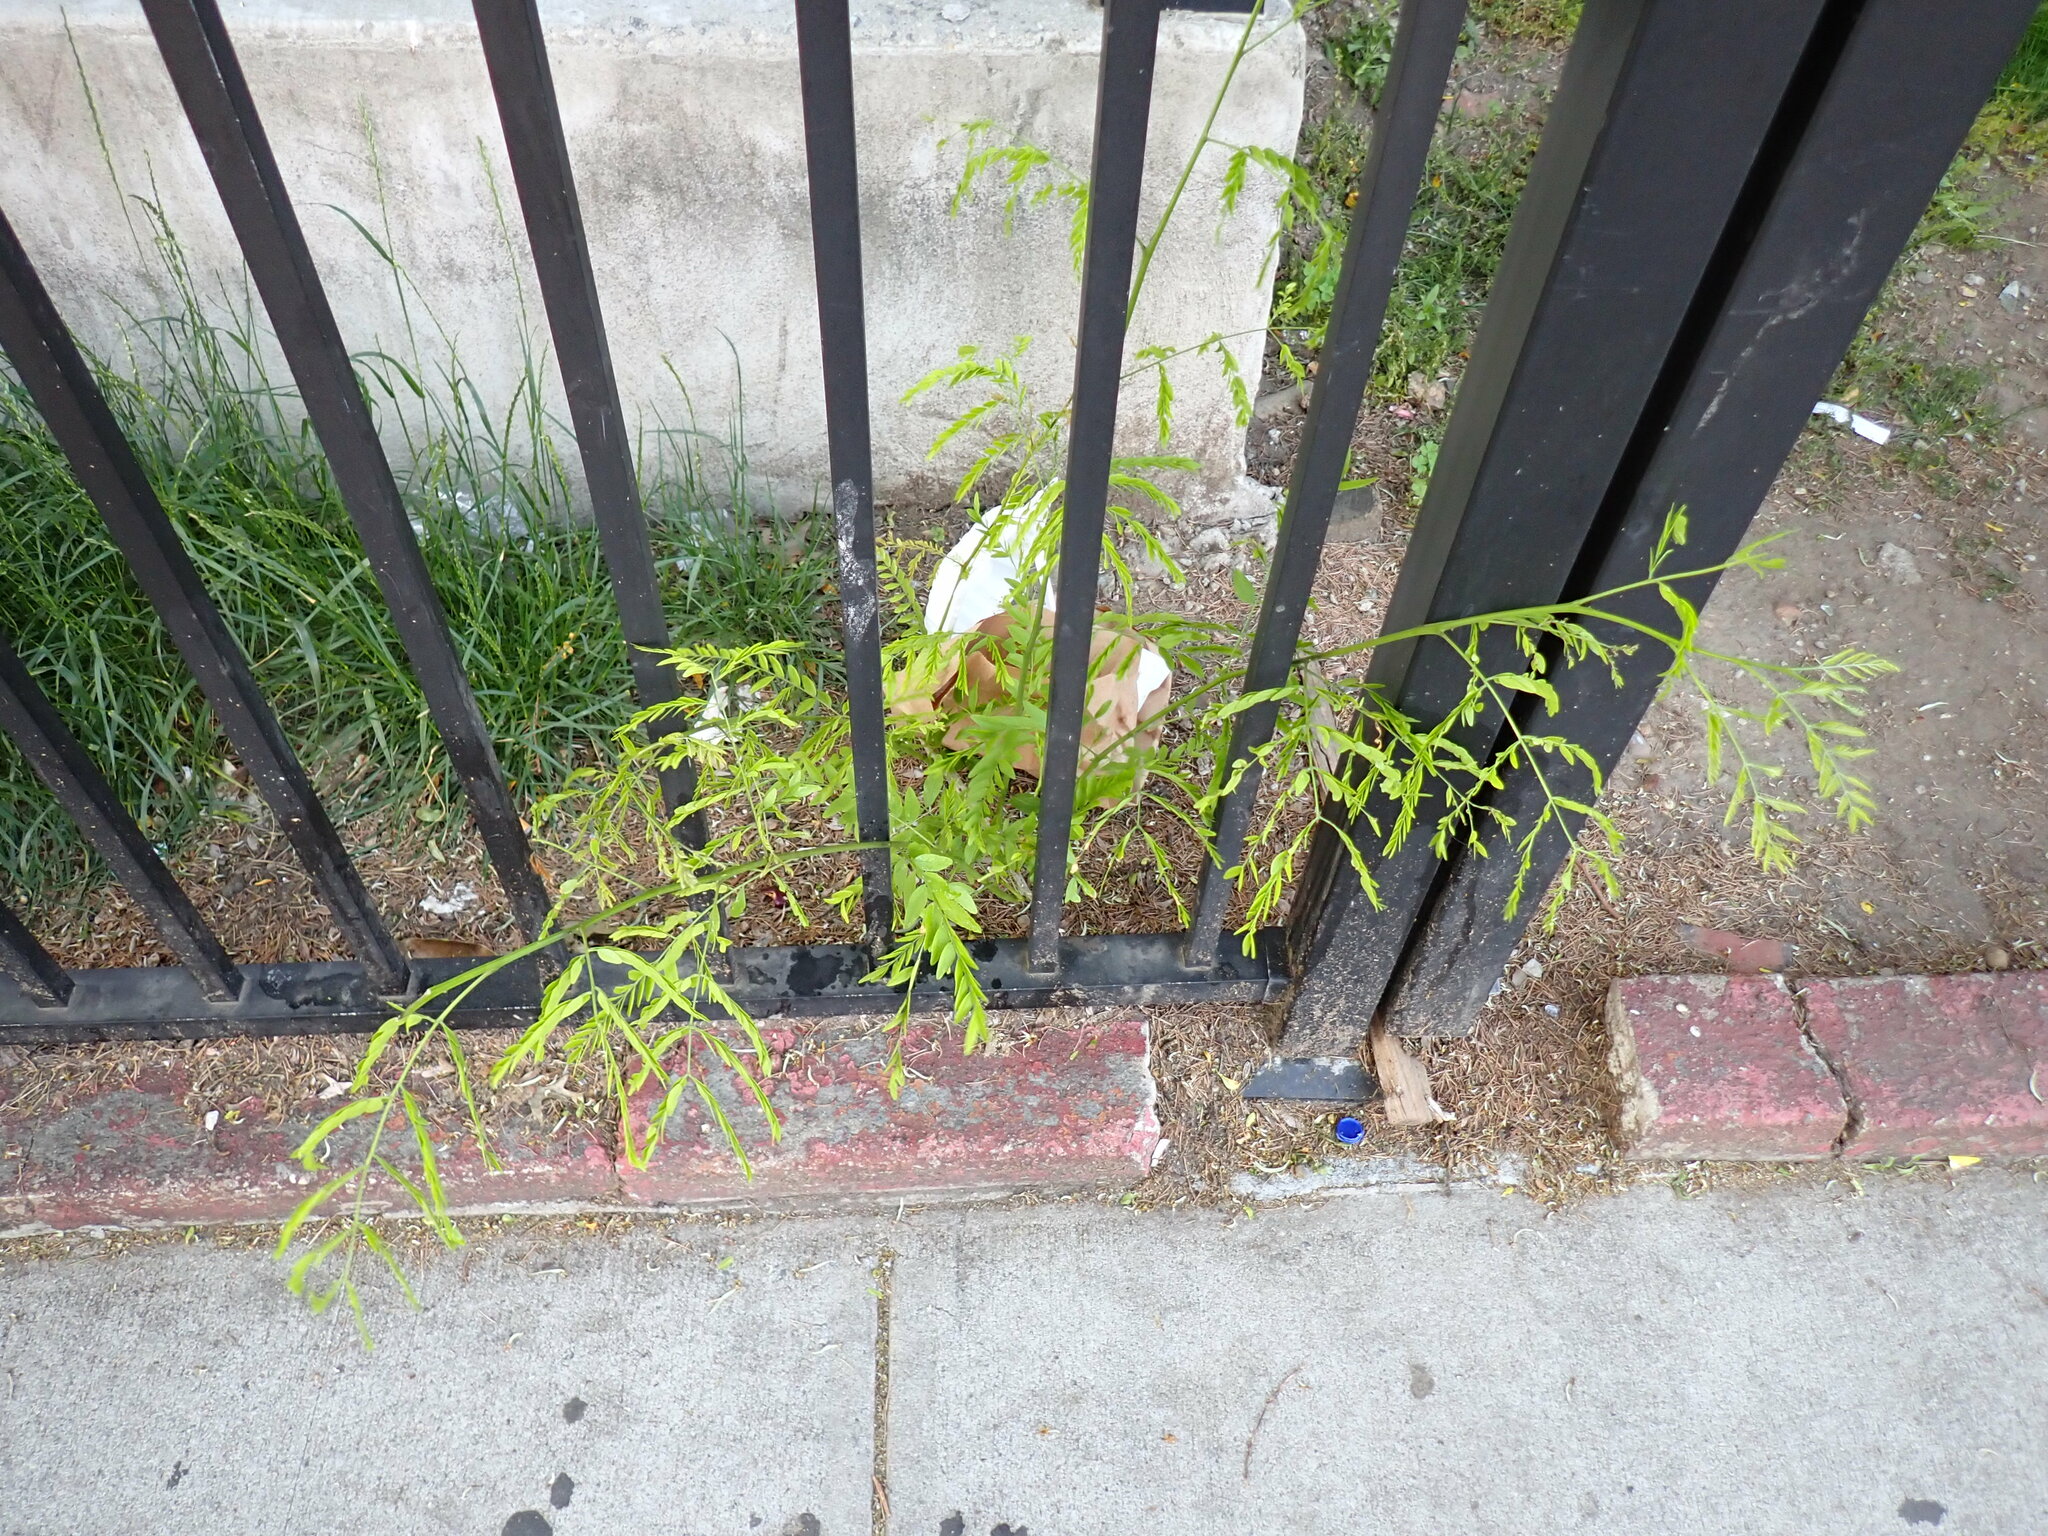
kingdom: Plantae
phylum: Tracheophyta
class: Magnoliopsida
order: Fabales
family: Fabaceae
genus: Gleditsia
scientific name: Gleditsia triacanthos
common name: Common honeylocust
